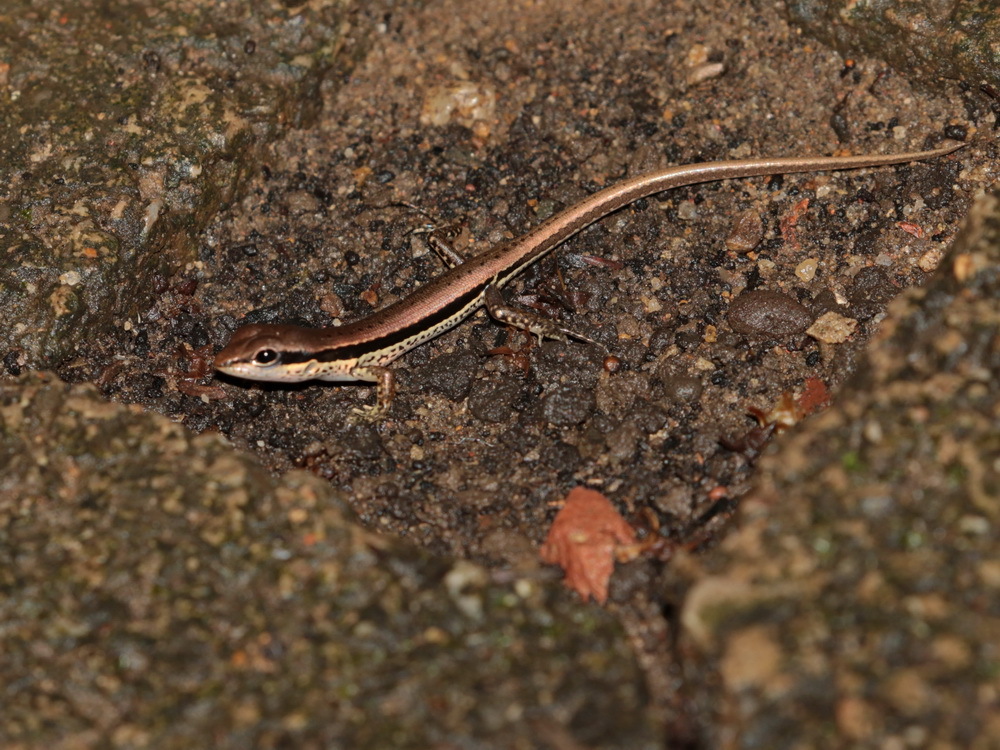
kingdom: Animalia
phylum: Chordata
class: Squamata
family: Scincidae
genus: Sphenomorphus
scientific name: Sphenomorphus maculatus
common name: Maculated forest skink
